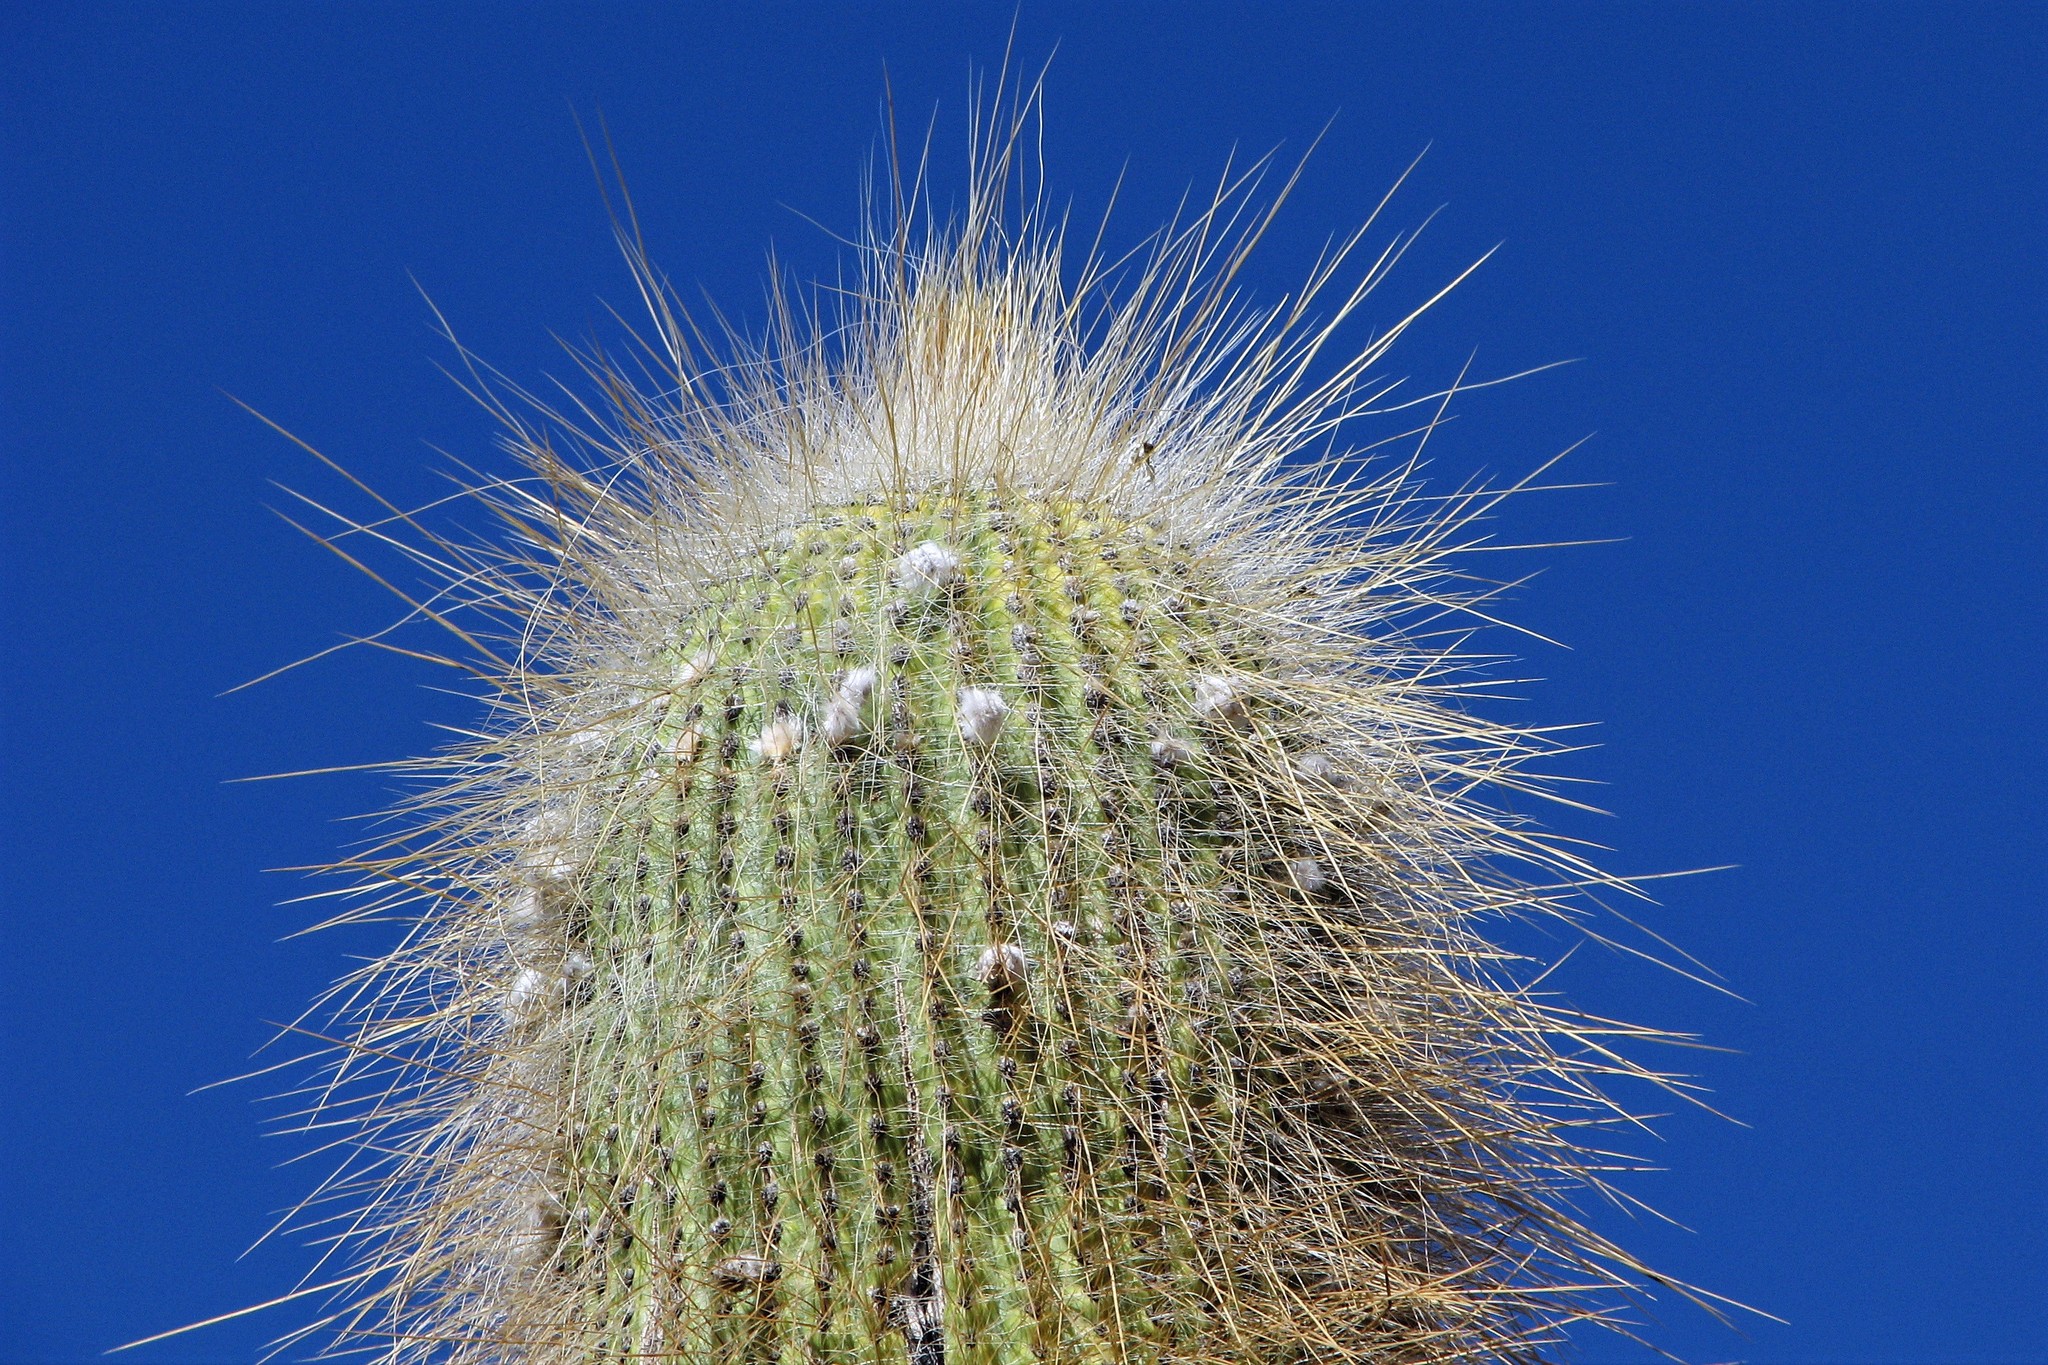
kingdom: Plantae
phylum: Tracheophyta
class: Magnoliopsida
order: Caryophyllales
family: Cactaceae
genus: Leucostele
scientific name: Leucostele atacamensis
